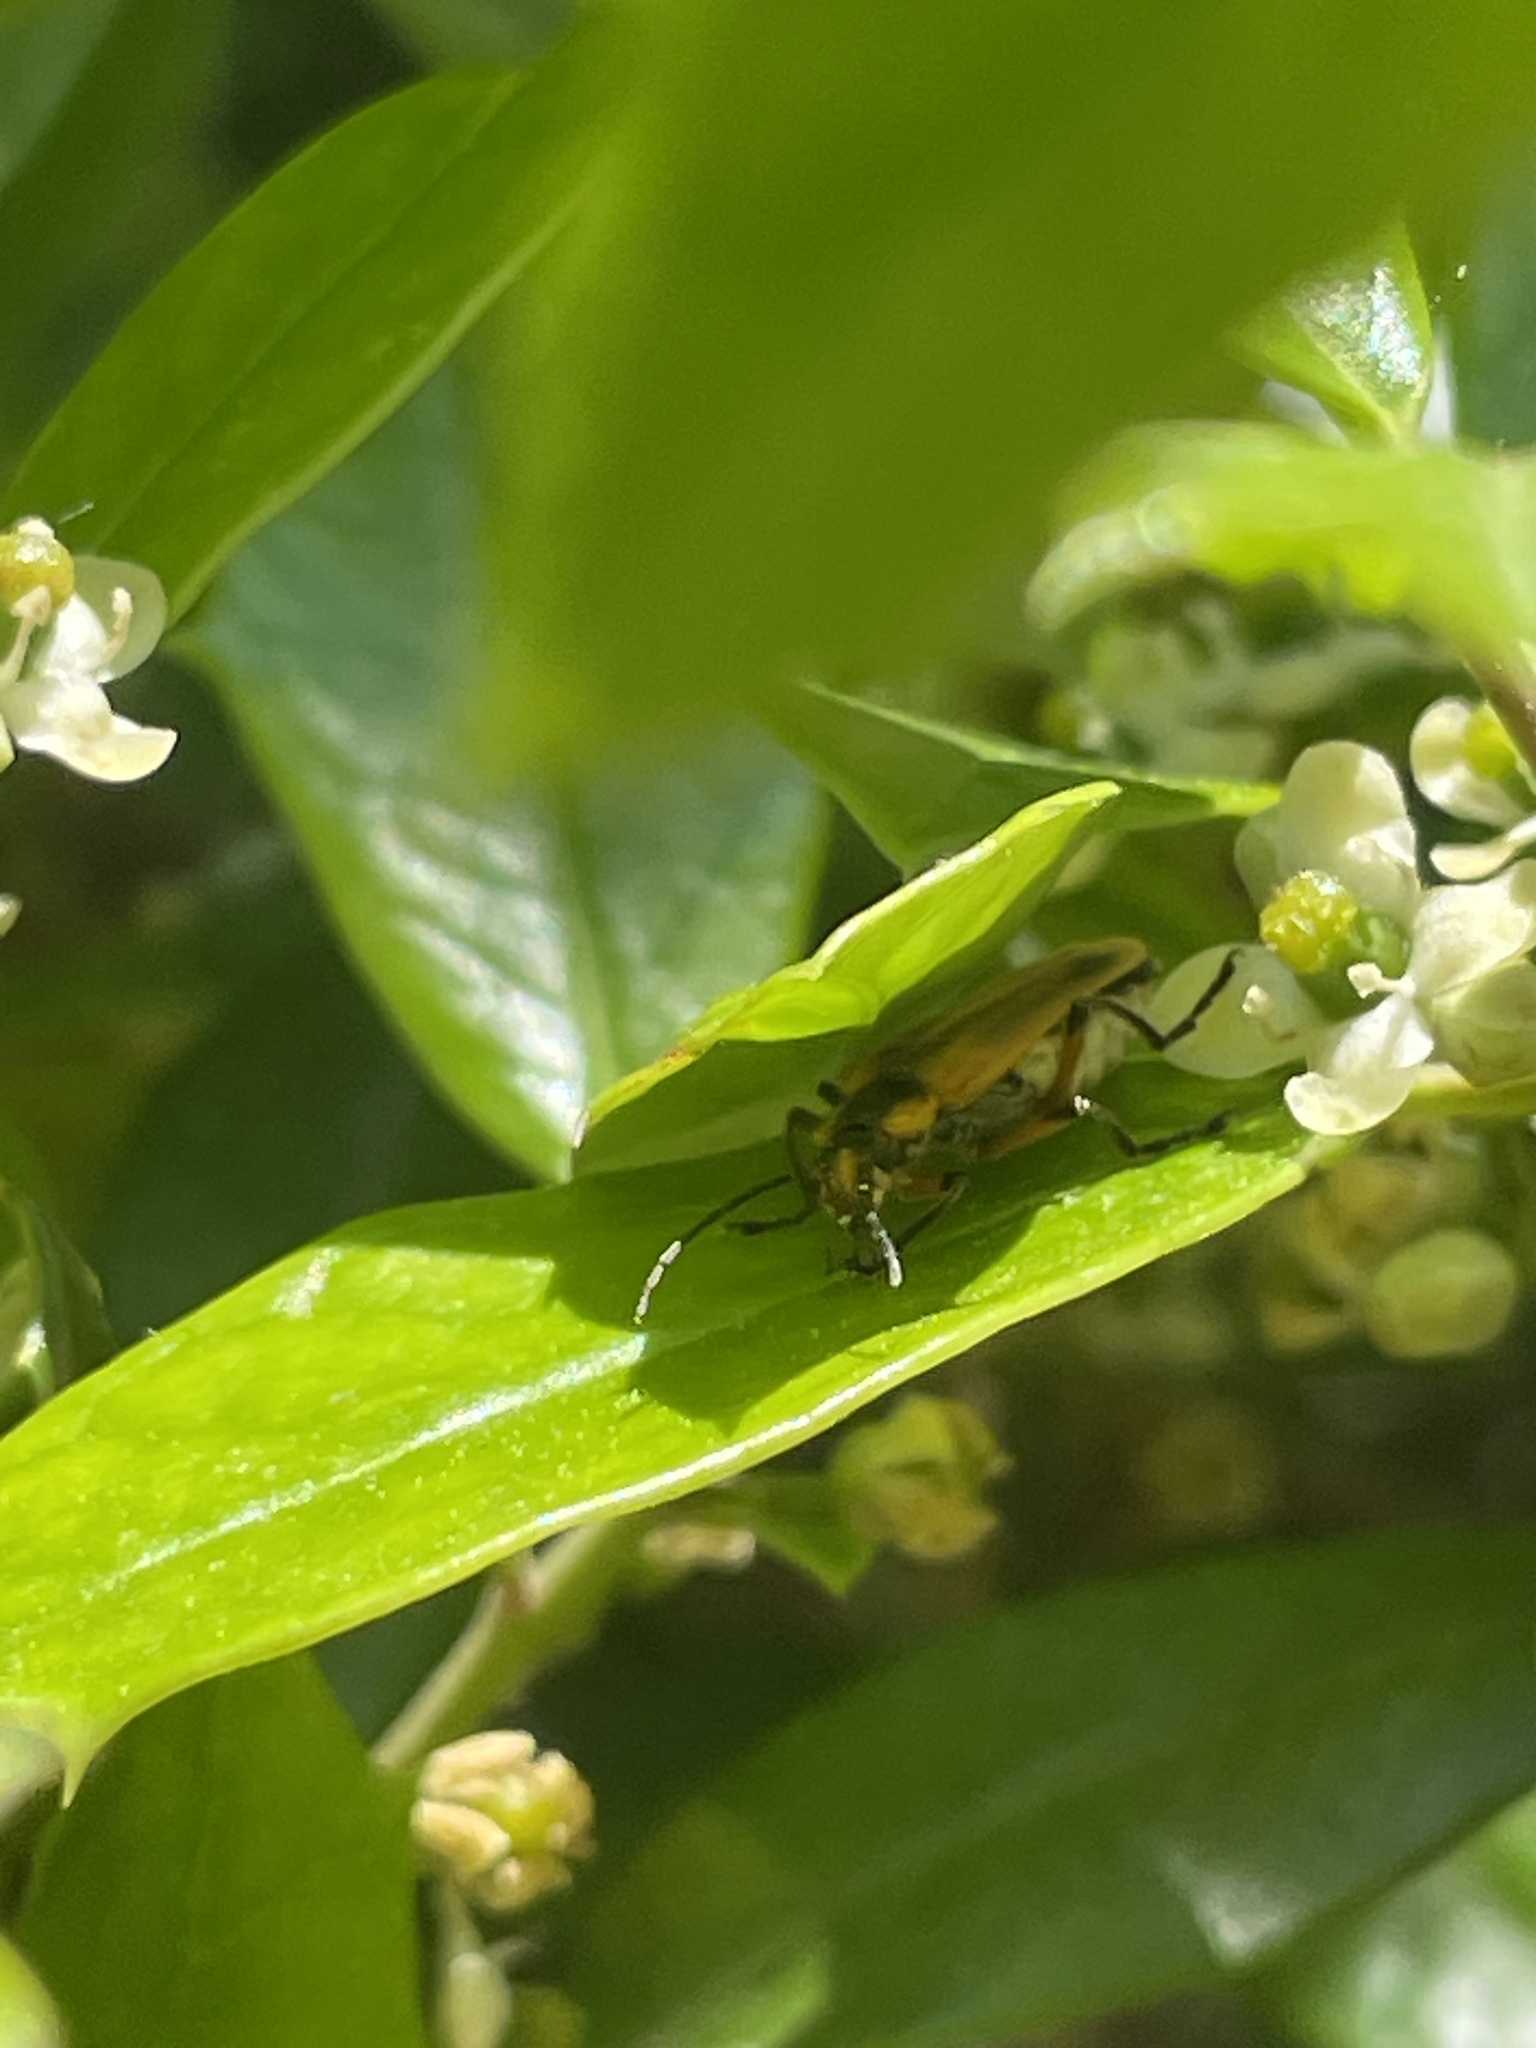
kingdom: Animalia
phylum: Arthropoda
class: Insecta
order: Coleoptera
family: Cantharidae
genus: Chauliognathus
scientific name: Chauliognathus marginatus
